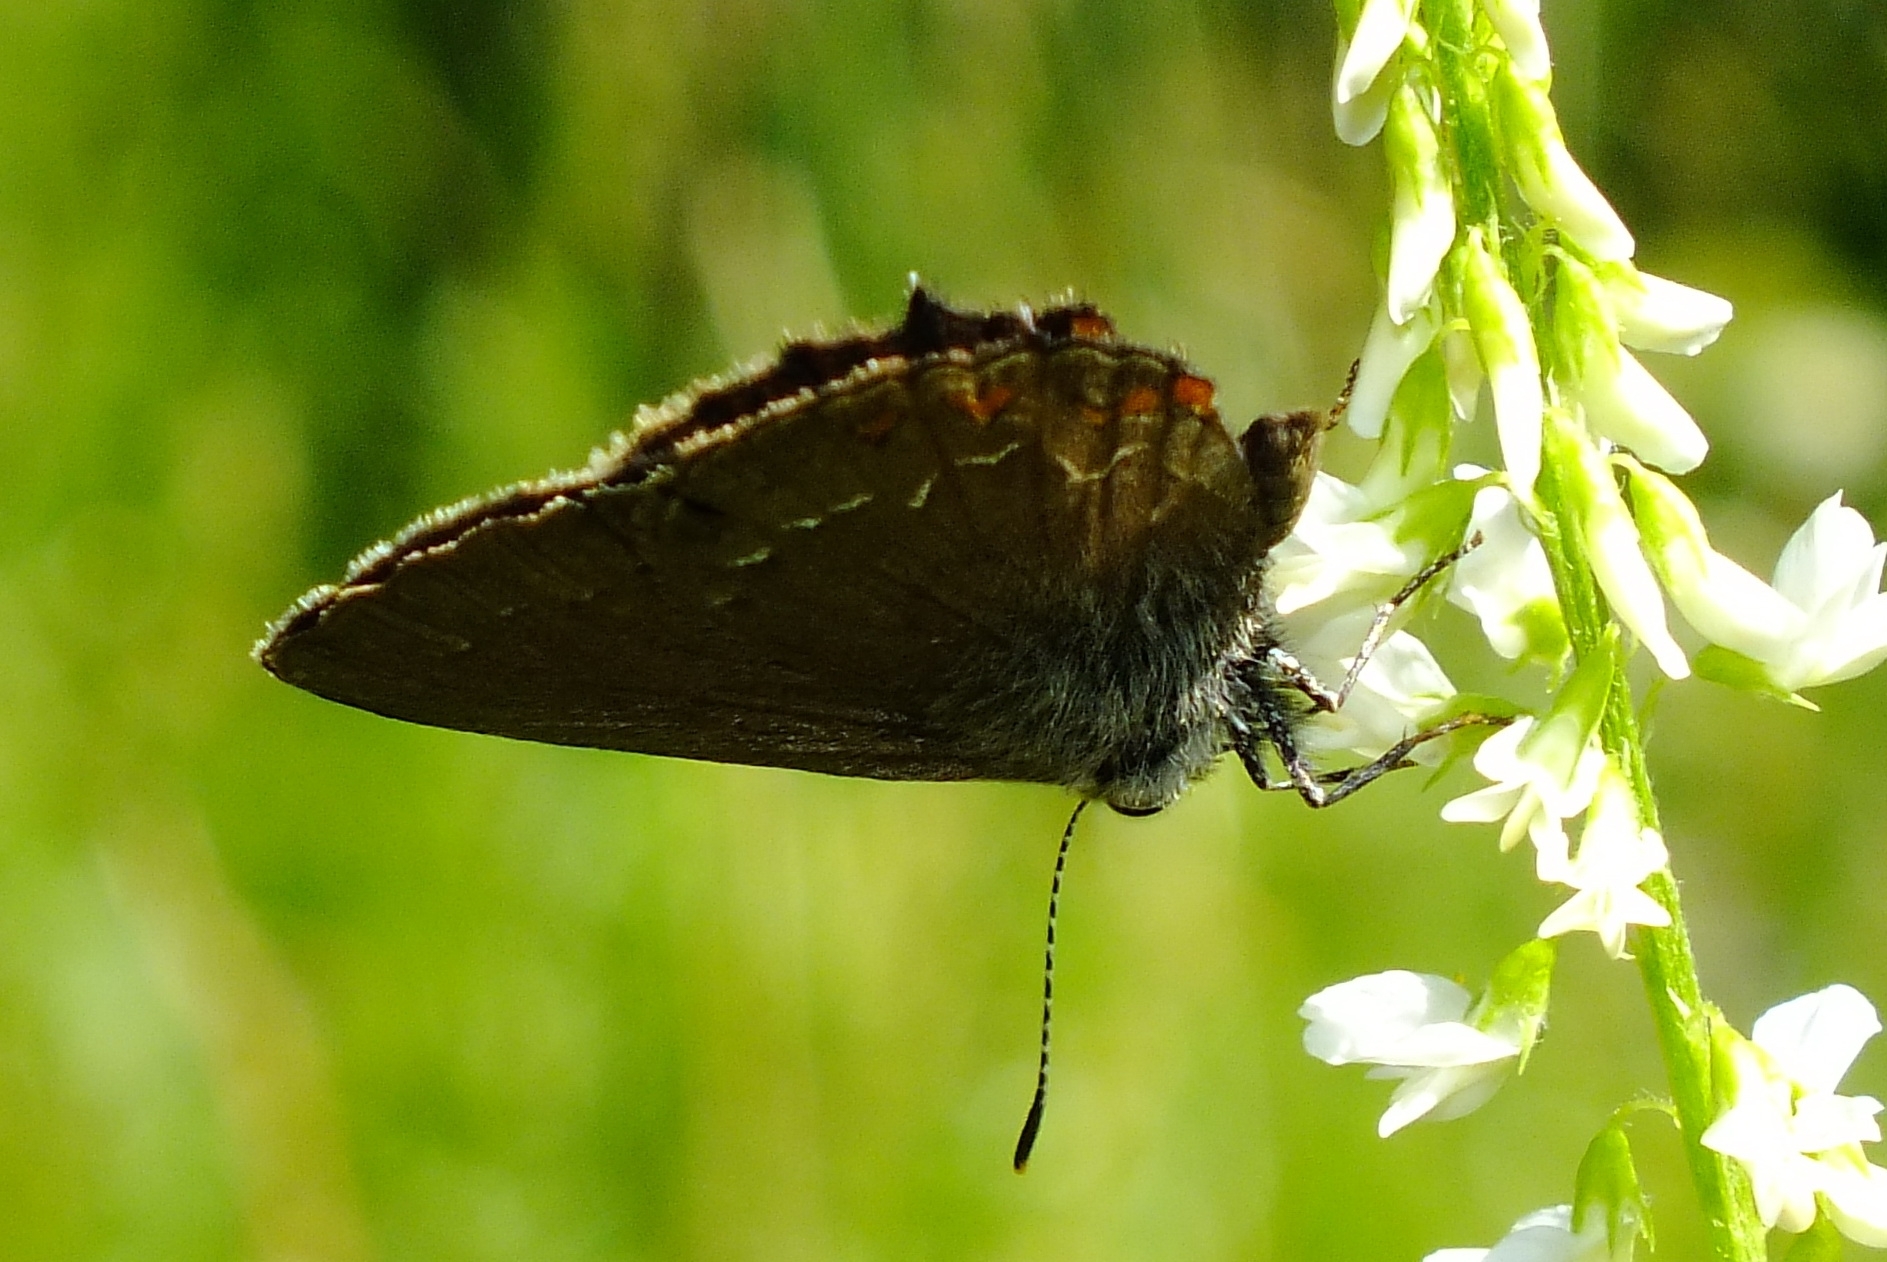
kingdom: Animalia
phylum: Arthropoda
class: Insecta
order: Lepidoptera
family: Lycaenidae
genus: Nordmannia
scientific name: Nordmannia ilicis
